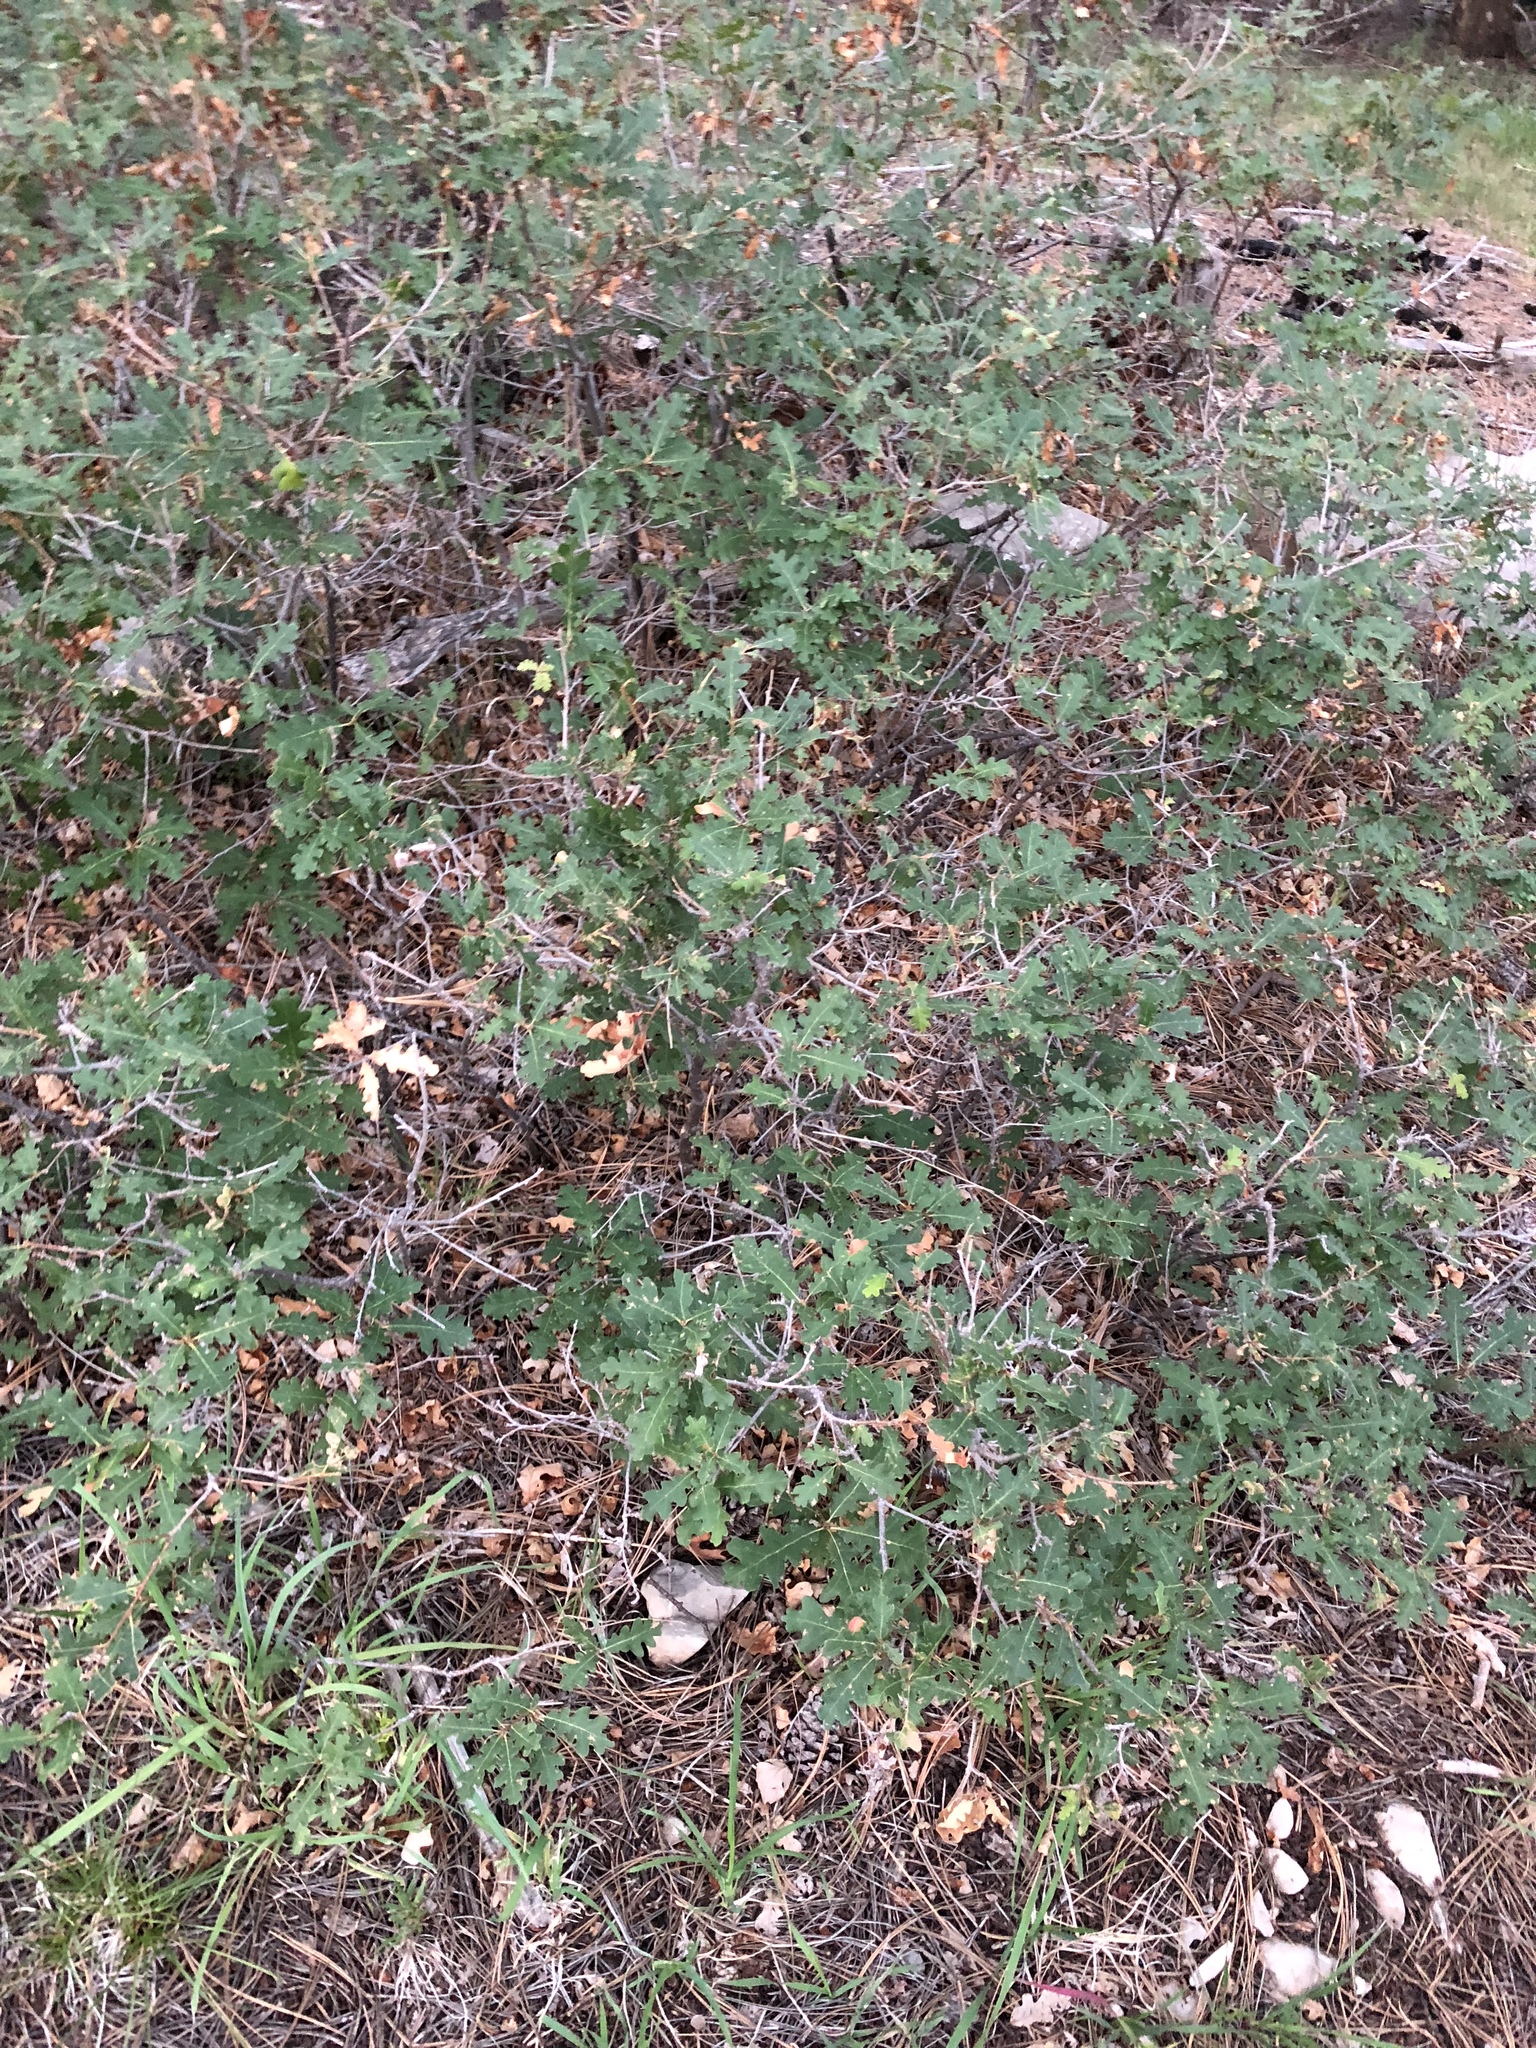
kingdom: Plantae
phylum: Tracheophyta
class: Magnoliopsida
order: Fagales
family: Fagaceae
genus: Quercus
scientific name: Quercus gambelii
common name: Gambel oak
